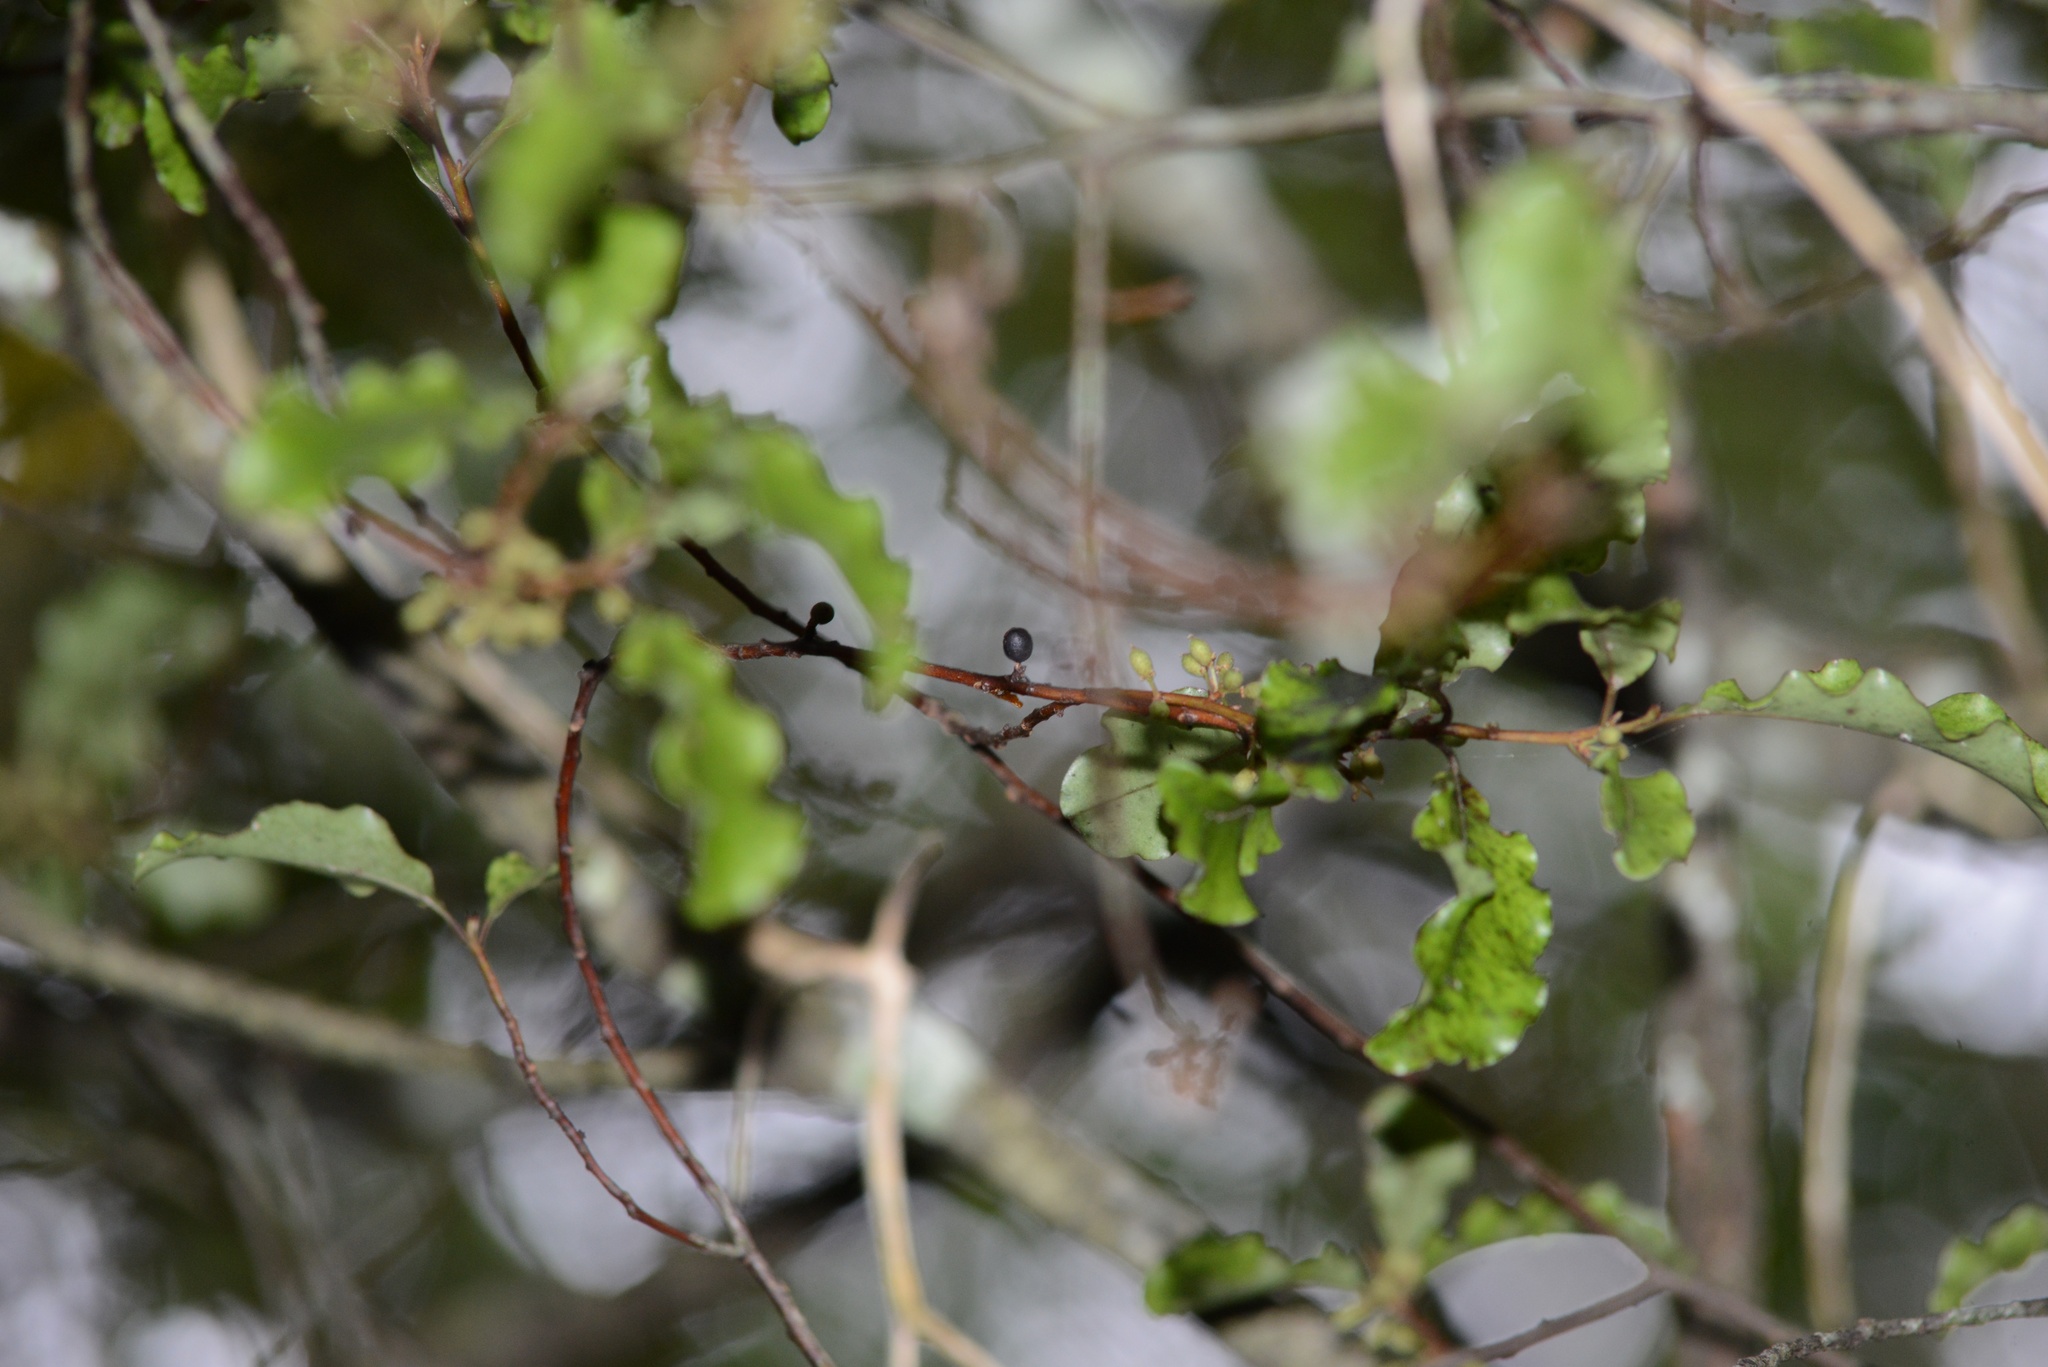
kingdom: Plantae
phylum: Tracheophyta
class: Magnoliopsida
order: Ericales
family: Primulaceae
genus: Myrsine
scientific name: Myrsine australis
